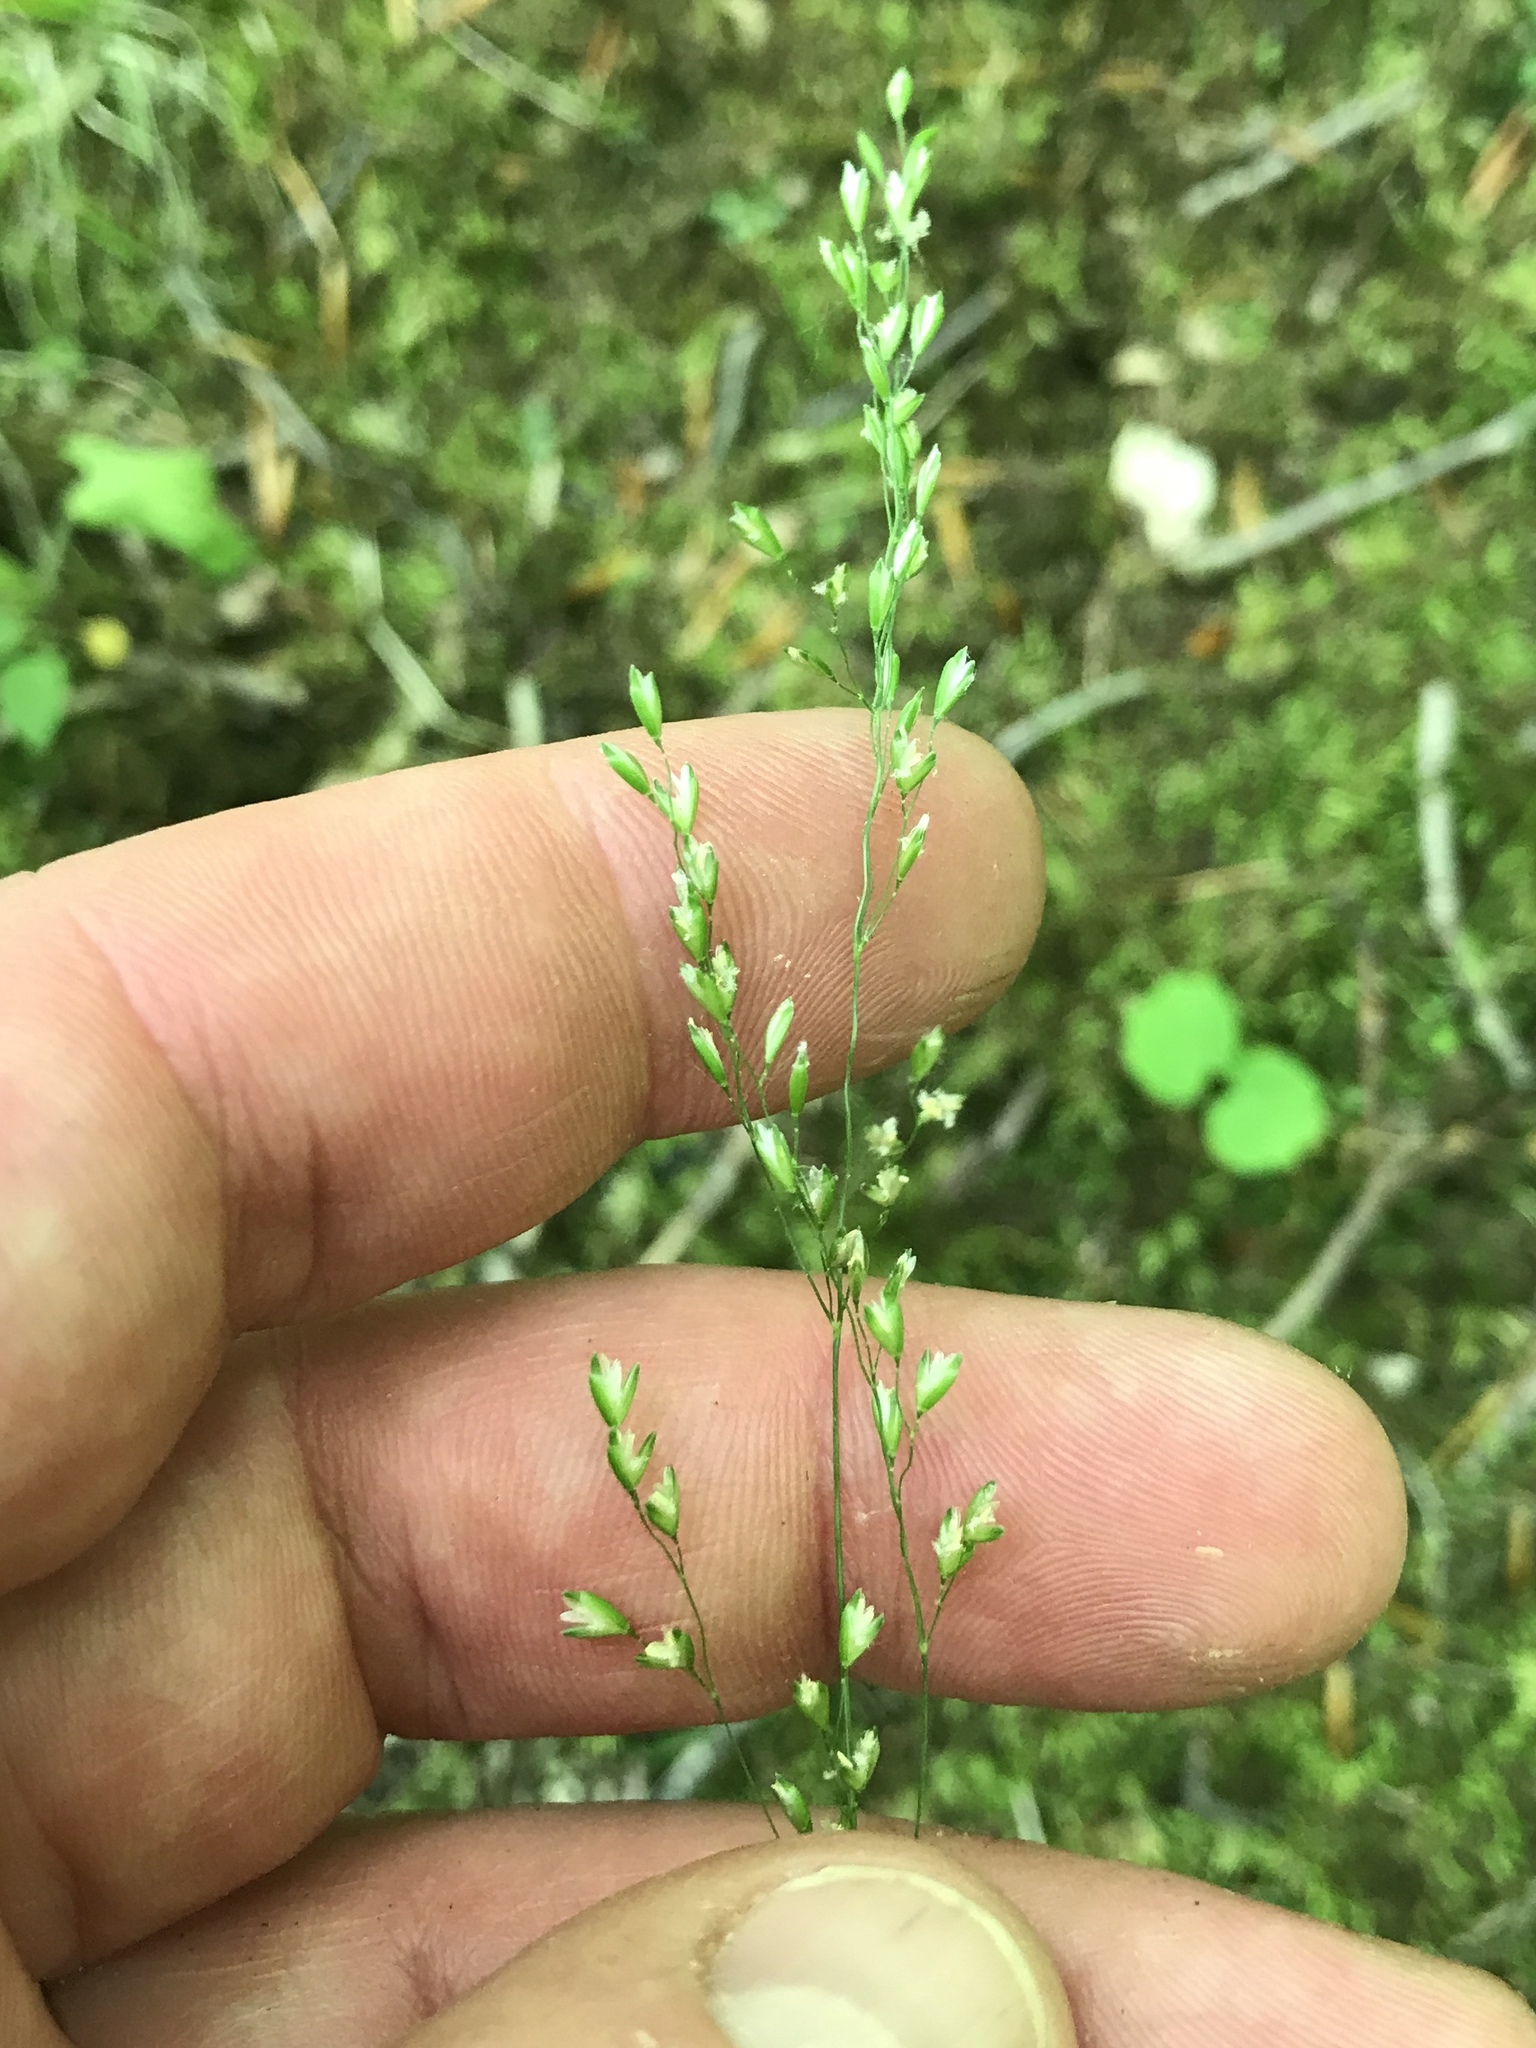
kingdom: Plantae
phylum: Tracheophyta
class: Liliopsida
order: Poales
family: Poaceae
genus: Sphenopholis
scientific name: Sphenopholis nitida
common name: Shiny wedgegrass
